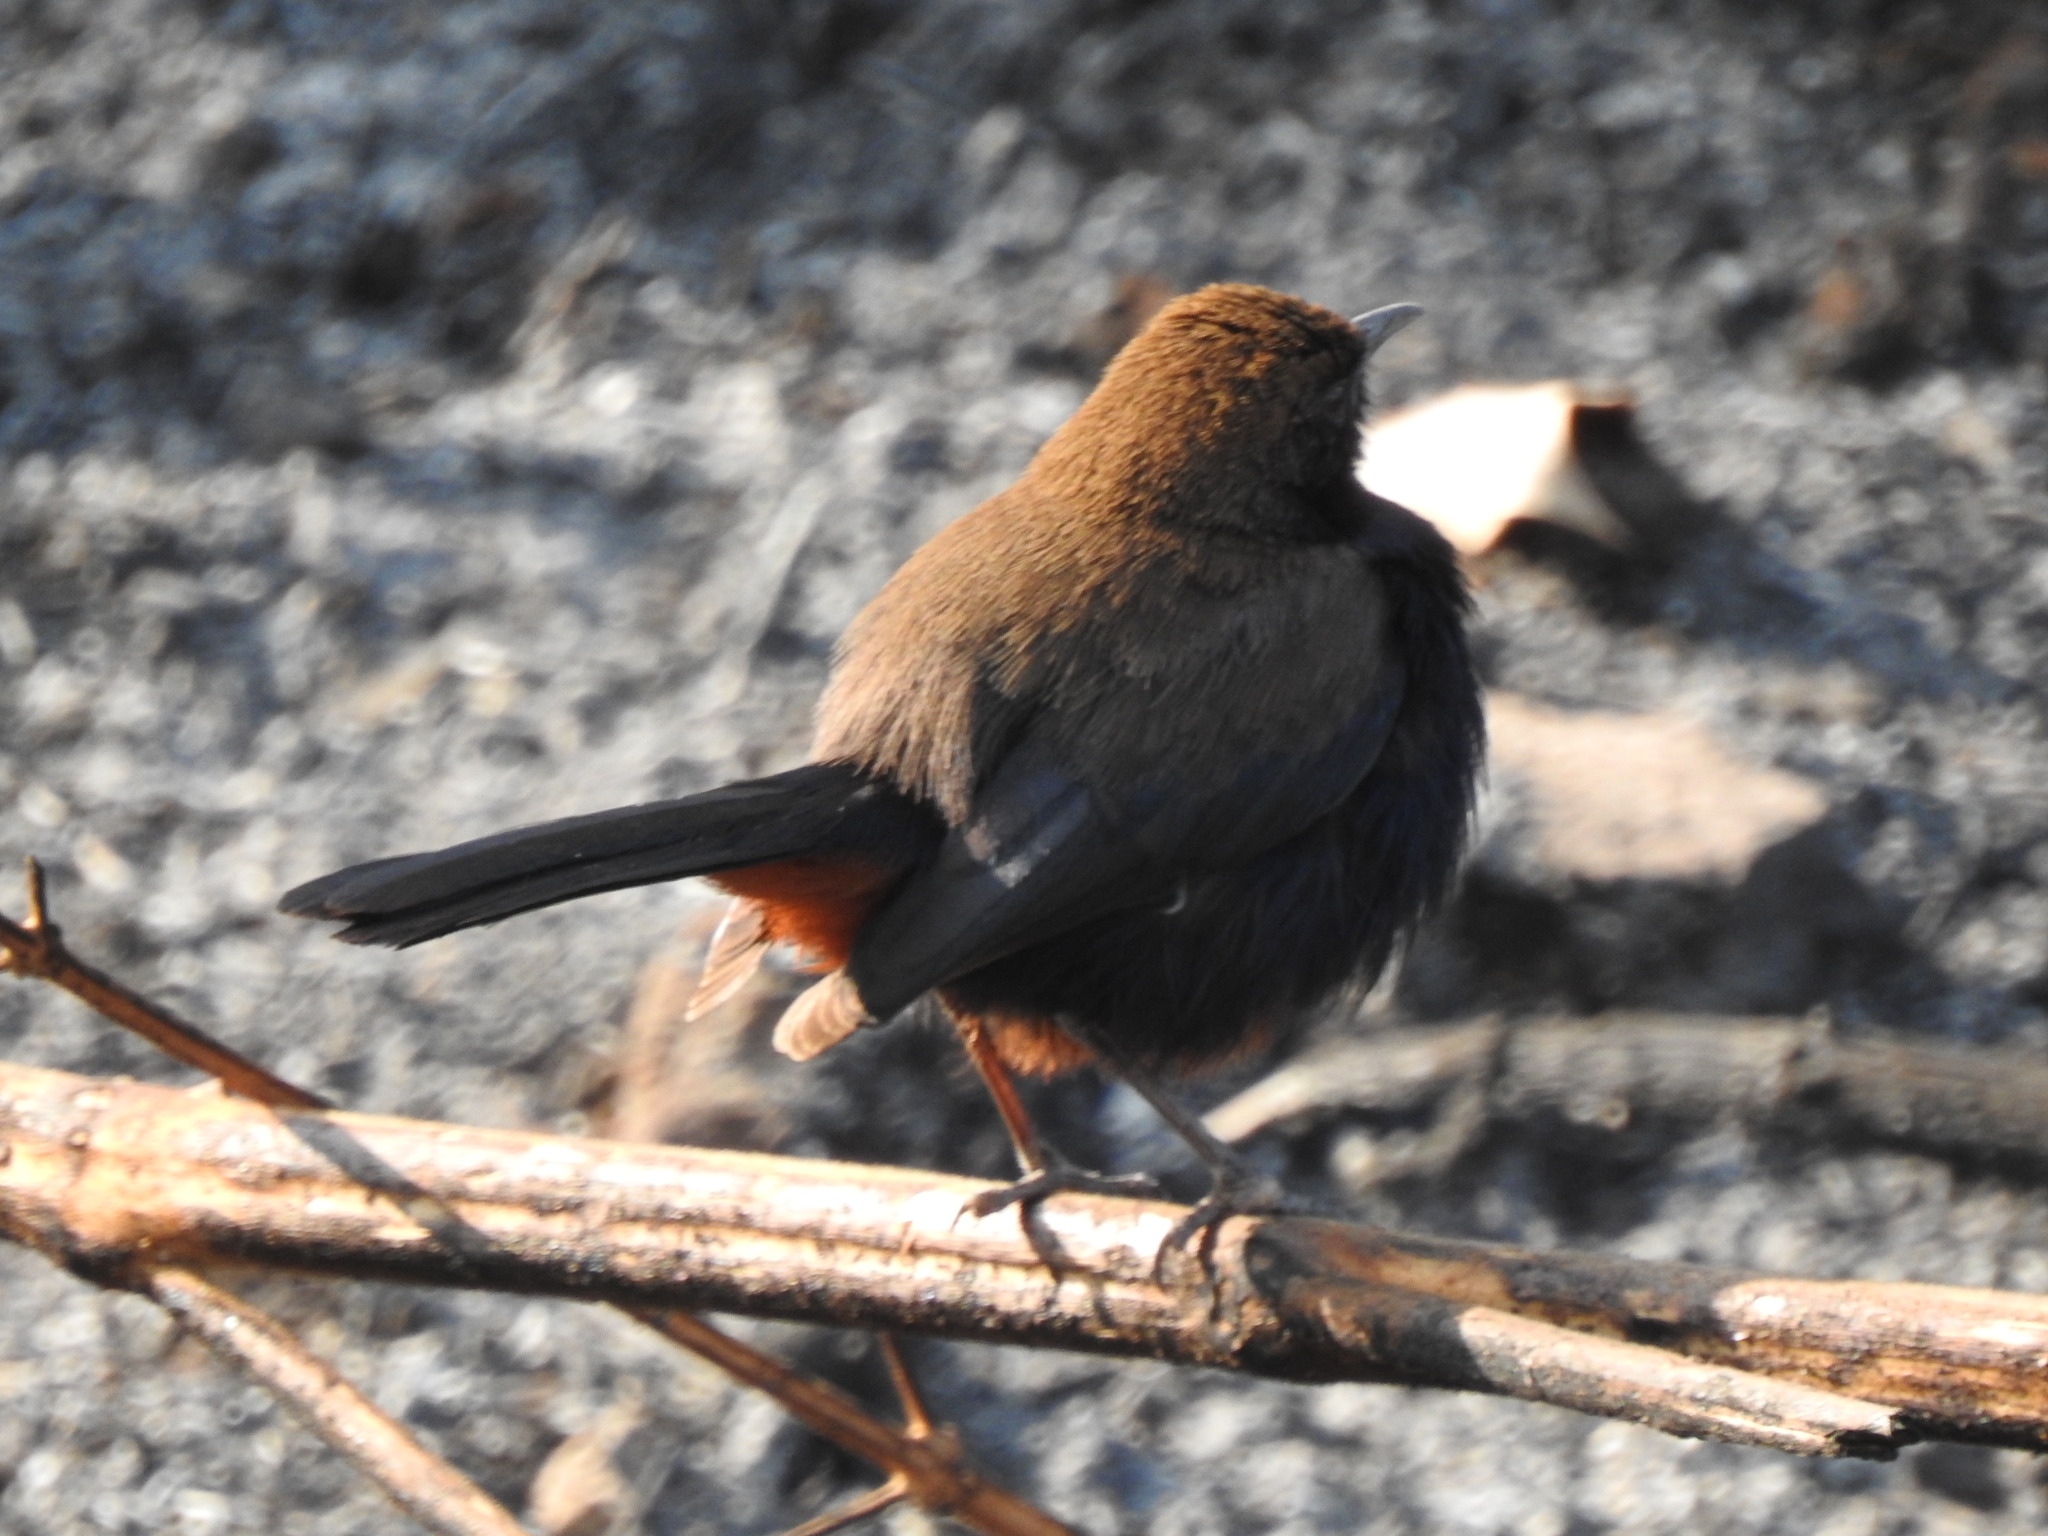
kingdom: Animalia
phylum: Chordata
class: Aves
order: Passeriformes
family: Muscicapidae
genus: Saxicoloides
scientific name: Saxicoloides fulicatus
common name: Indian robin
